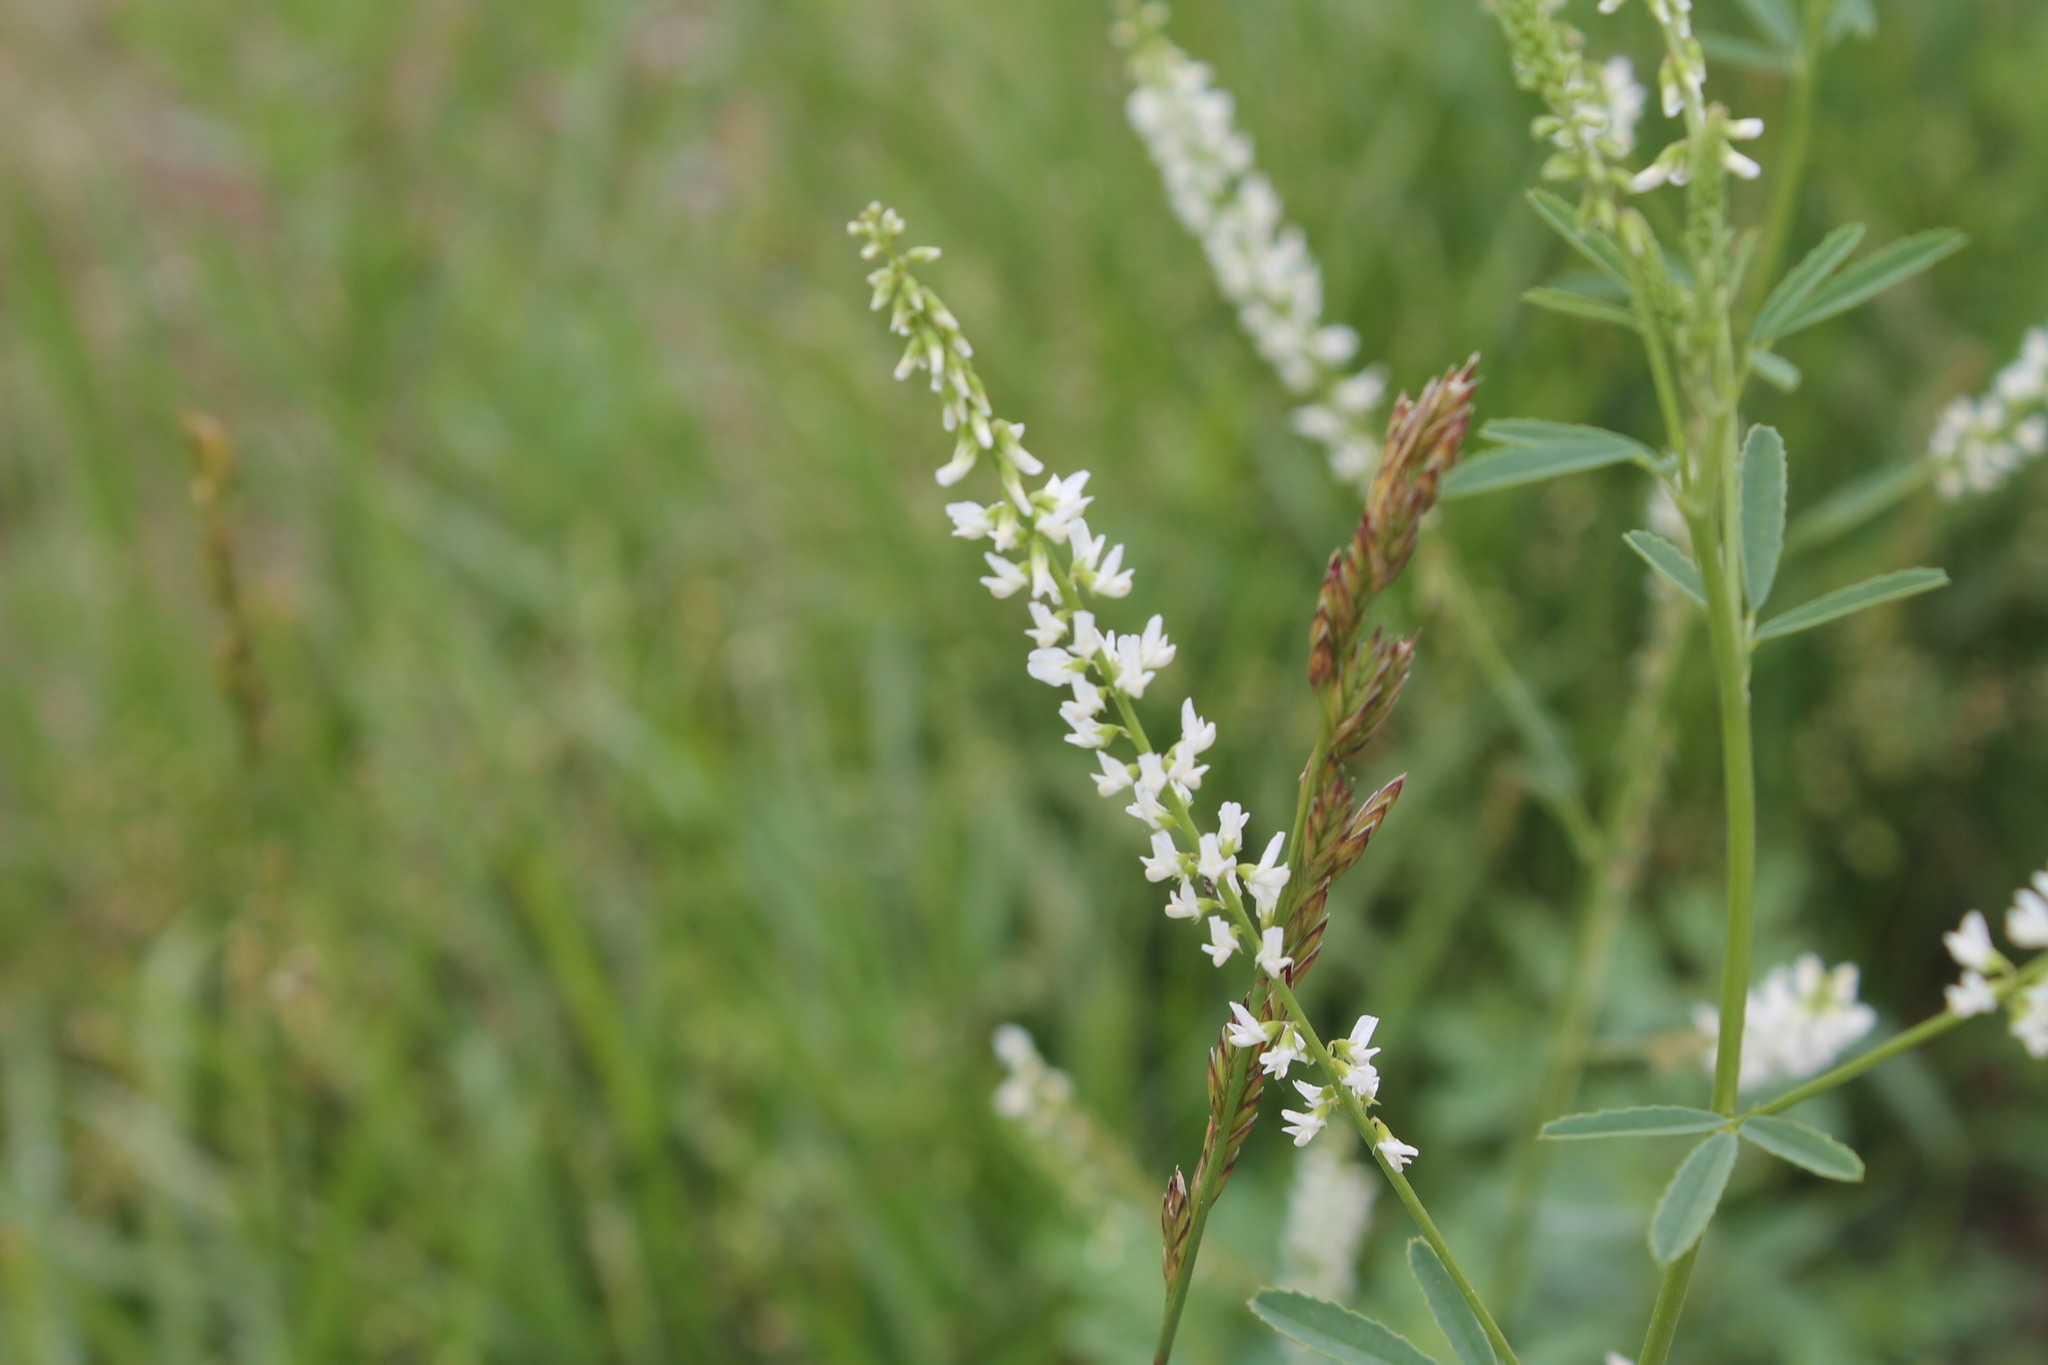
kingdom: Plantae
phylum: Tracheophyta
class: Magnoliopsida
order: Fabales
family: Fabaceae
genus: Melilotus
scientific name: Melilotus albus
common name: White melilot
